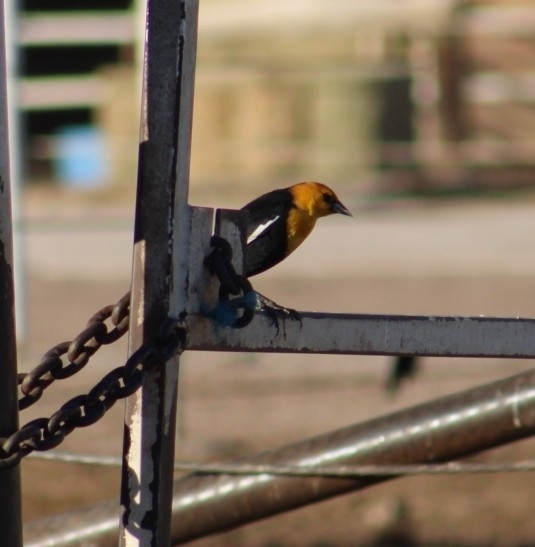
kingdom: Animalia
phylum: Chordata
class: Aves
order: Passeriformes
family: Icteridae
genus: Xanthocephalus
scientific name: Xanthocephalus xanthocephalus
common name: Yellow-headed blackbird
